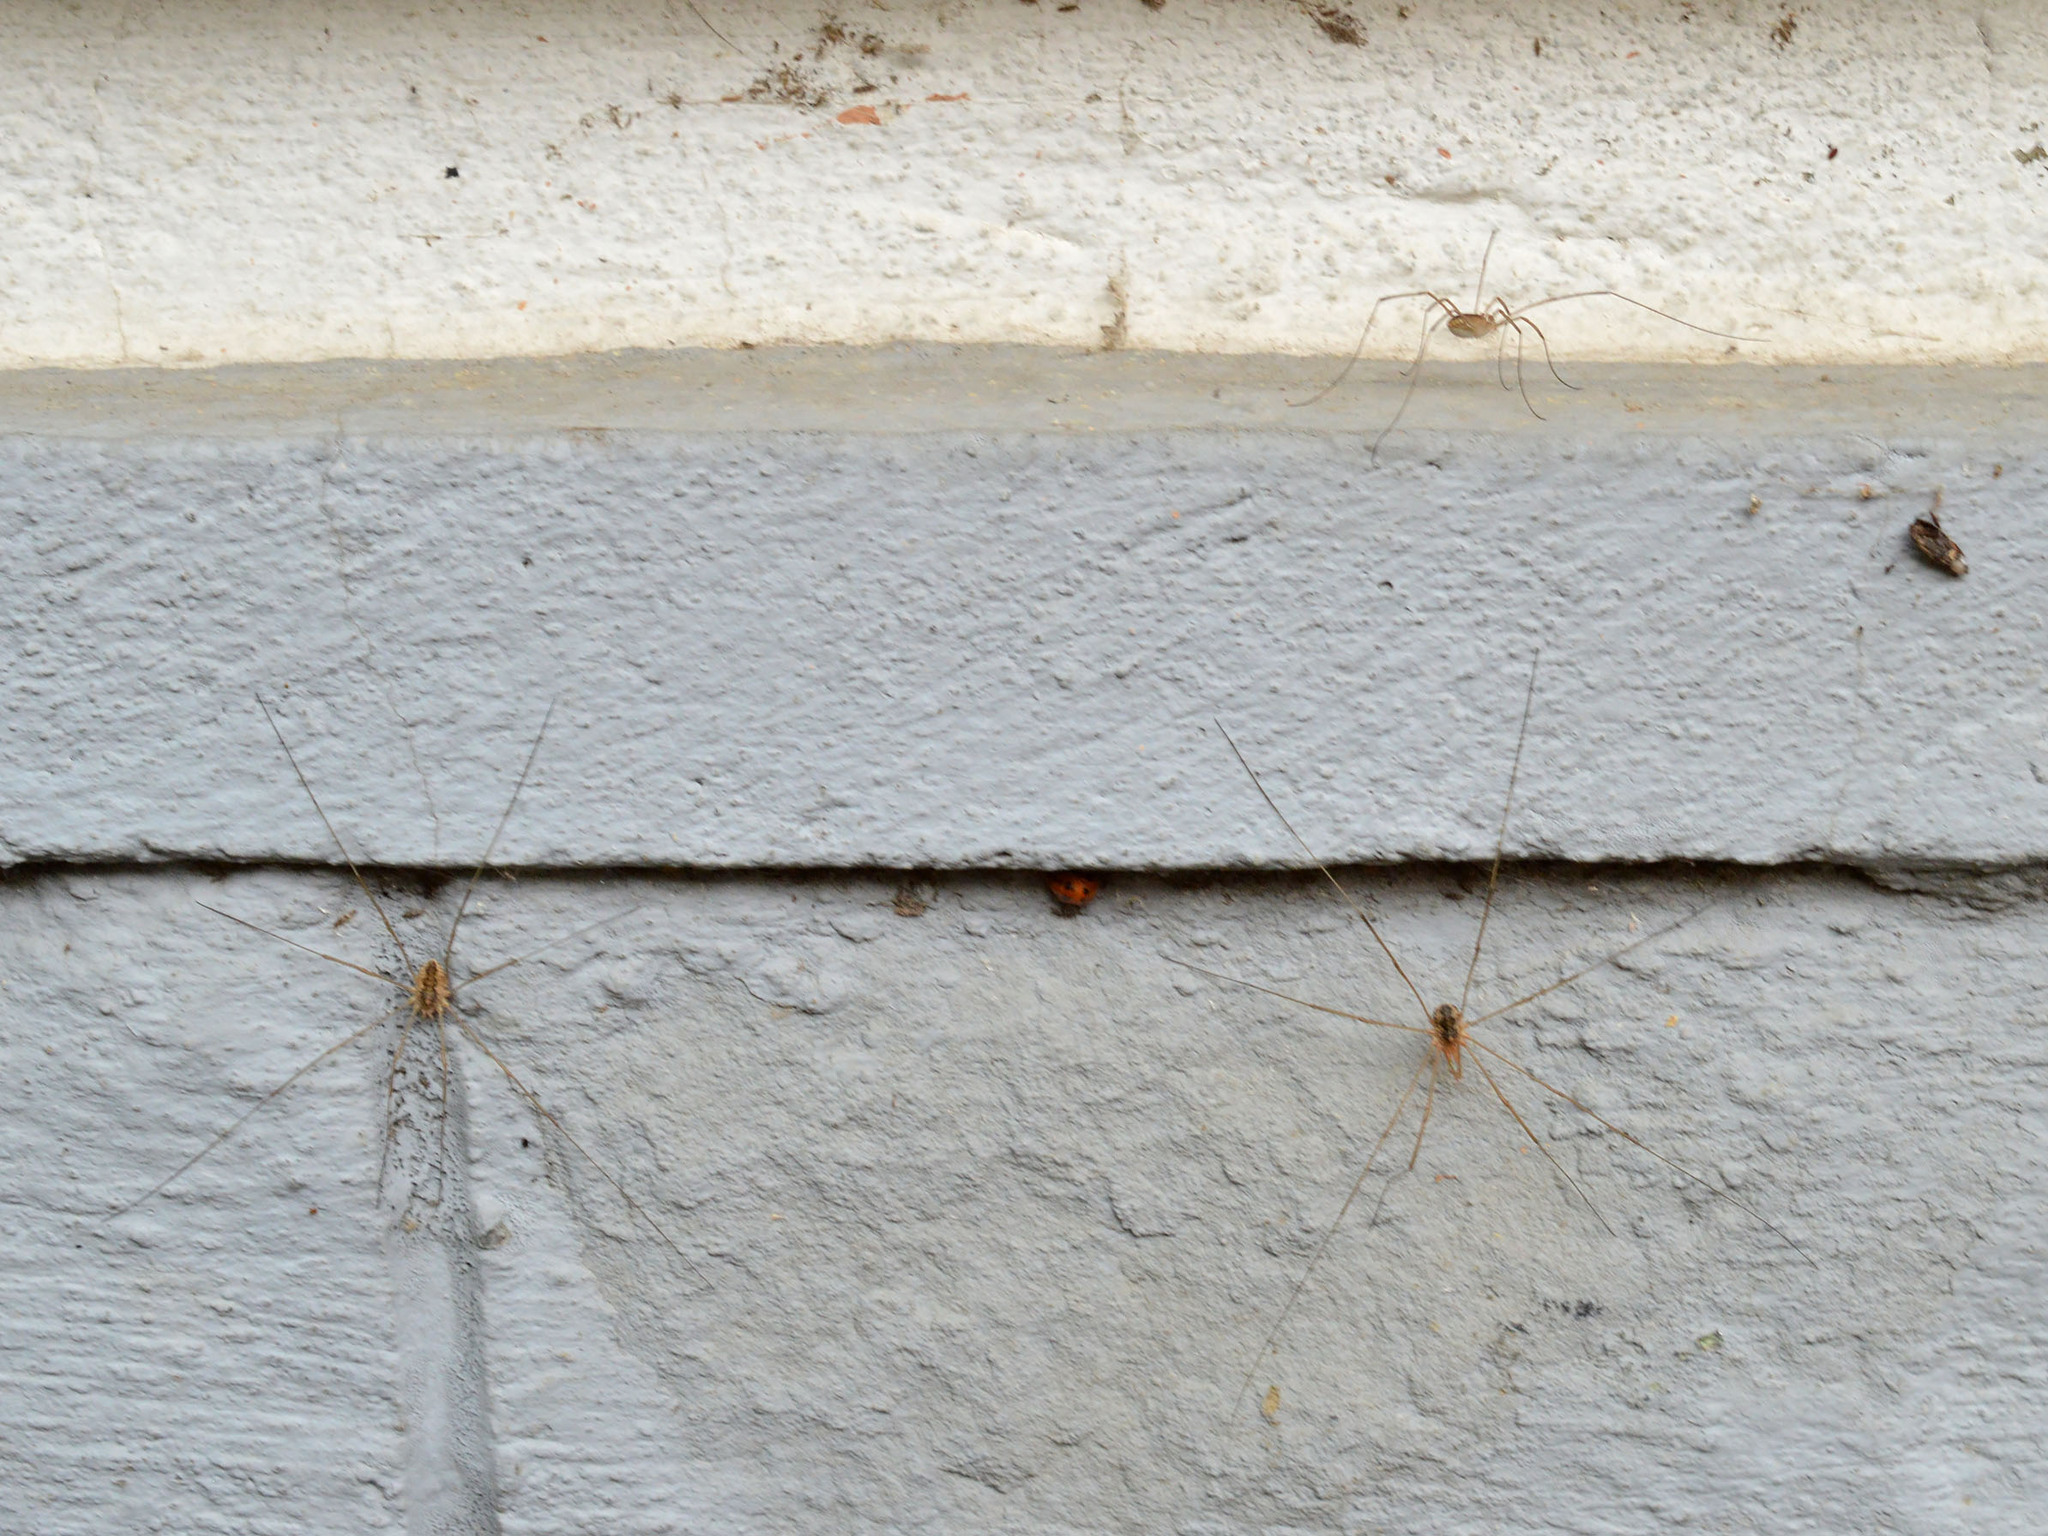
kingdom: Animalia
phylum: Arthropoda
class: Arachnida
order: Opiliones
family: Phalangiidae
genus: Phalangium
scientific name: Phalangium opilio
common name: Daddy longleg
